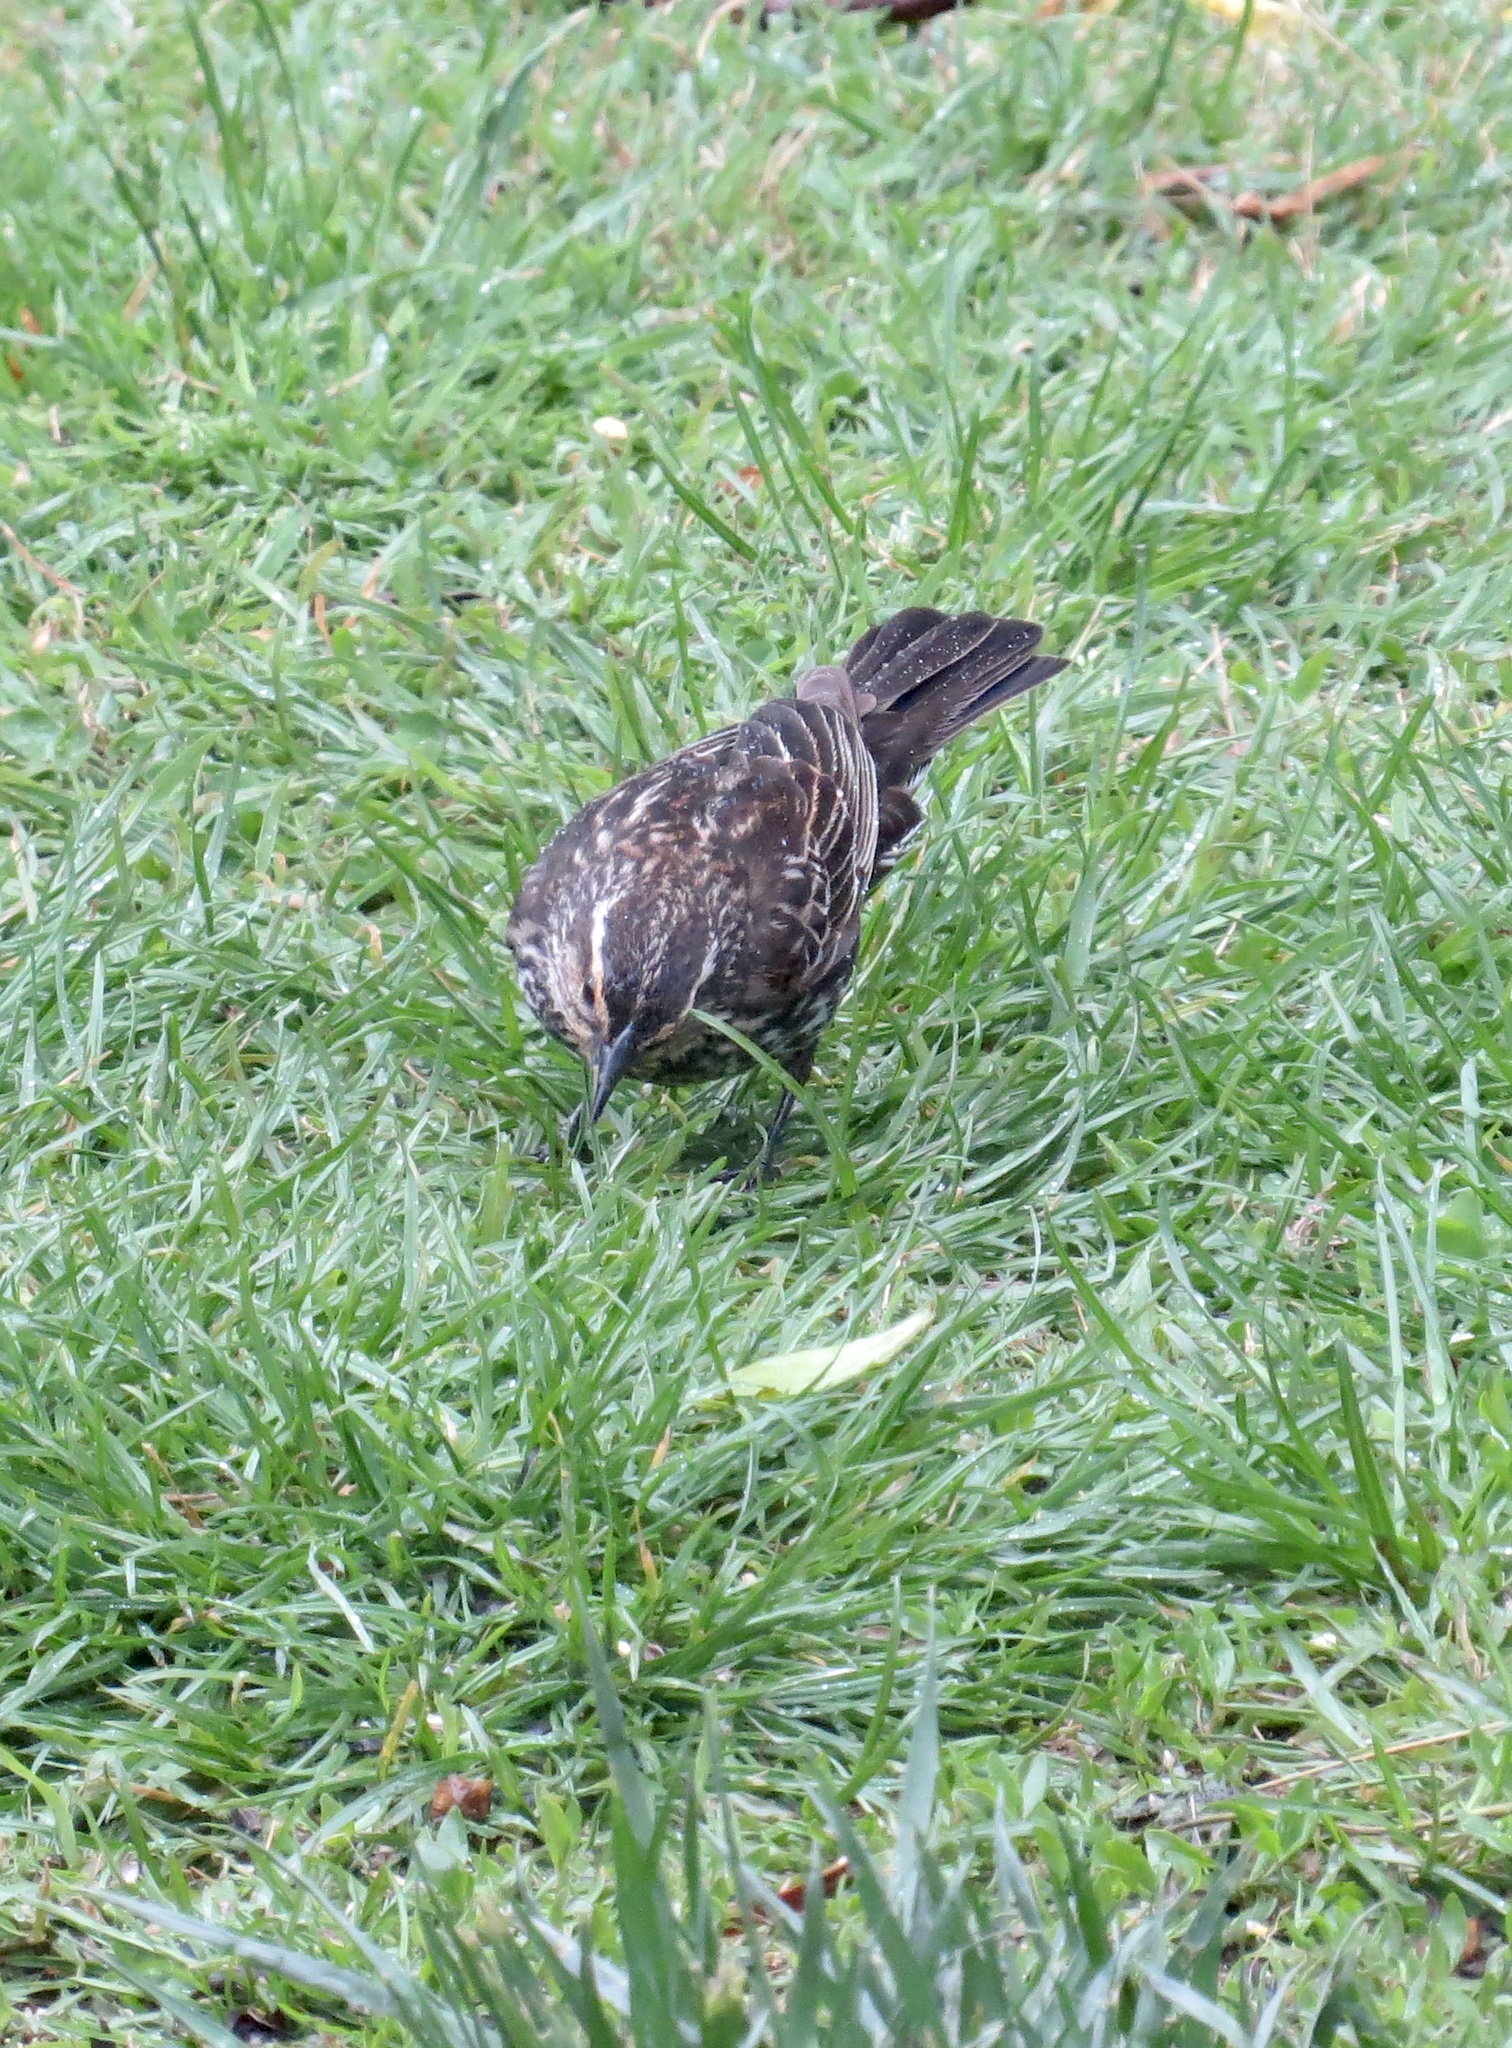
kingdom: Animalia
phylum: Chordata
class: Aves
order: Passeriformes
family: Icteridae
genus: Agelaius
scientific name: Agelaius phoeniceus
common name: Red-winged blackbird
